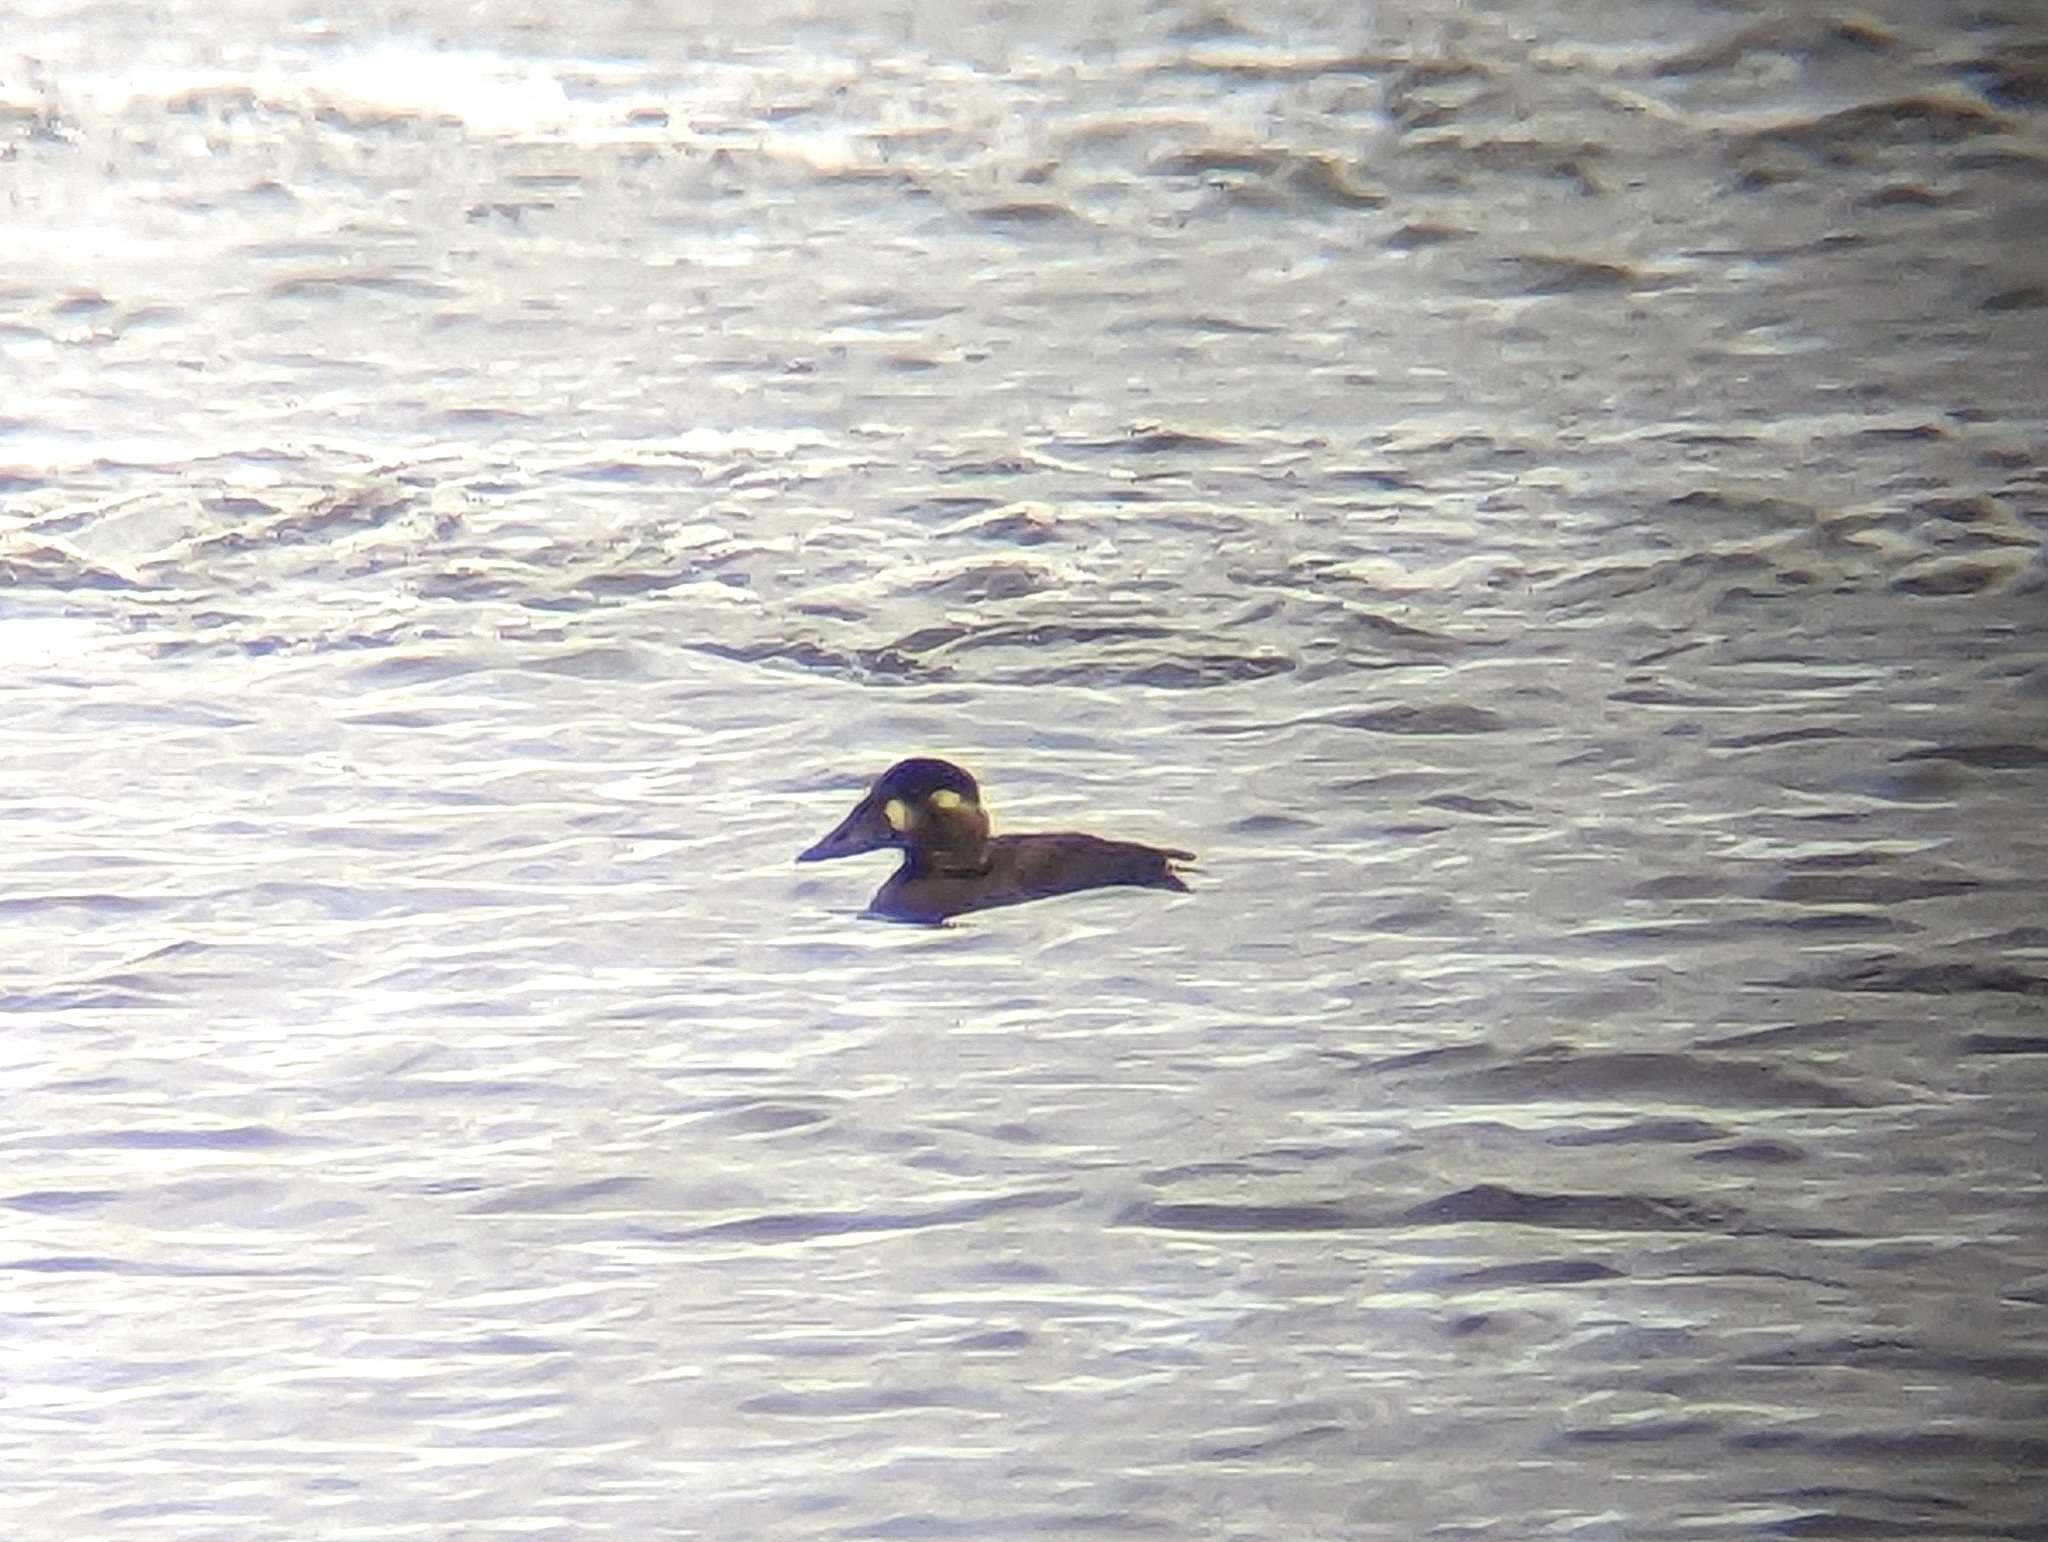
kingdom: Animalia
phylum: Chordata
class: Aves
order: Anseriformes
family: Anatidae
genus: Melanitta
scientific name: Melanitta perspicillata
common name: Surf scoter
